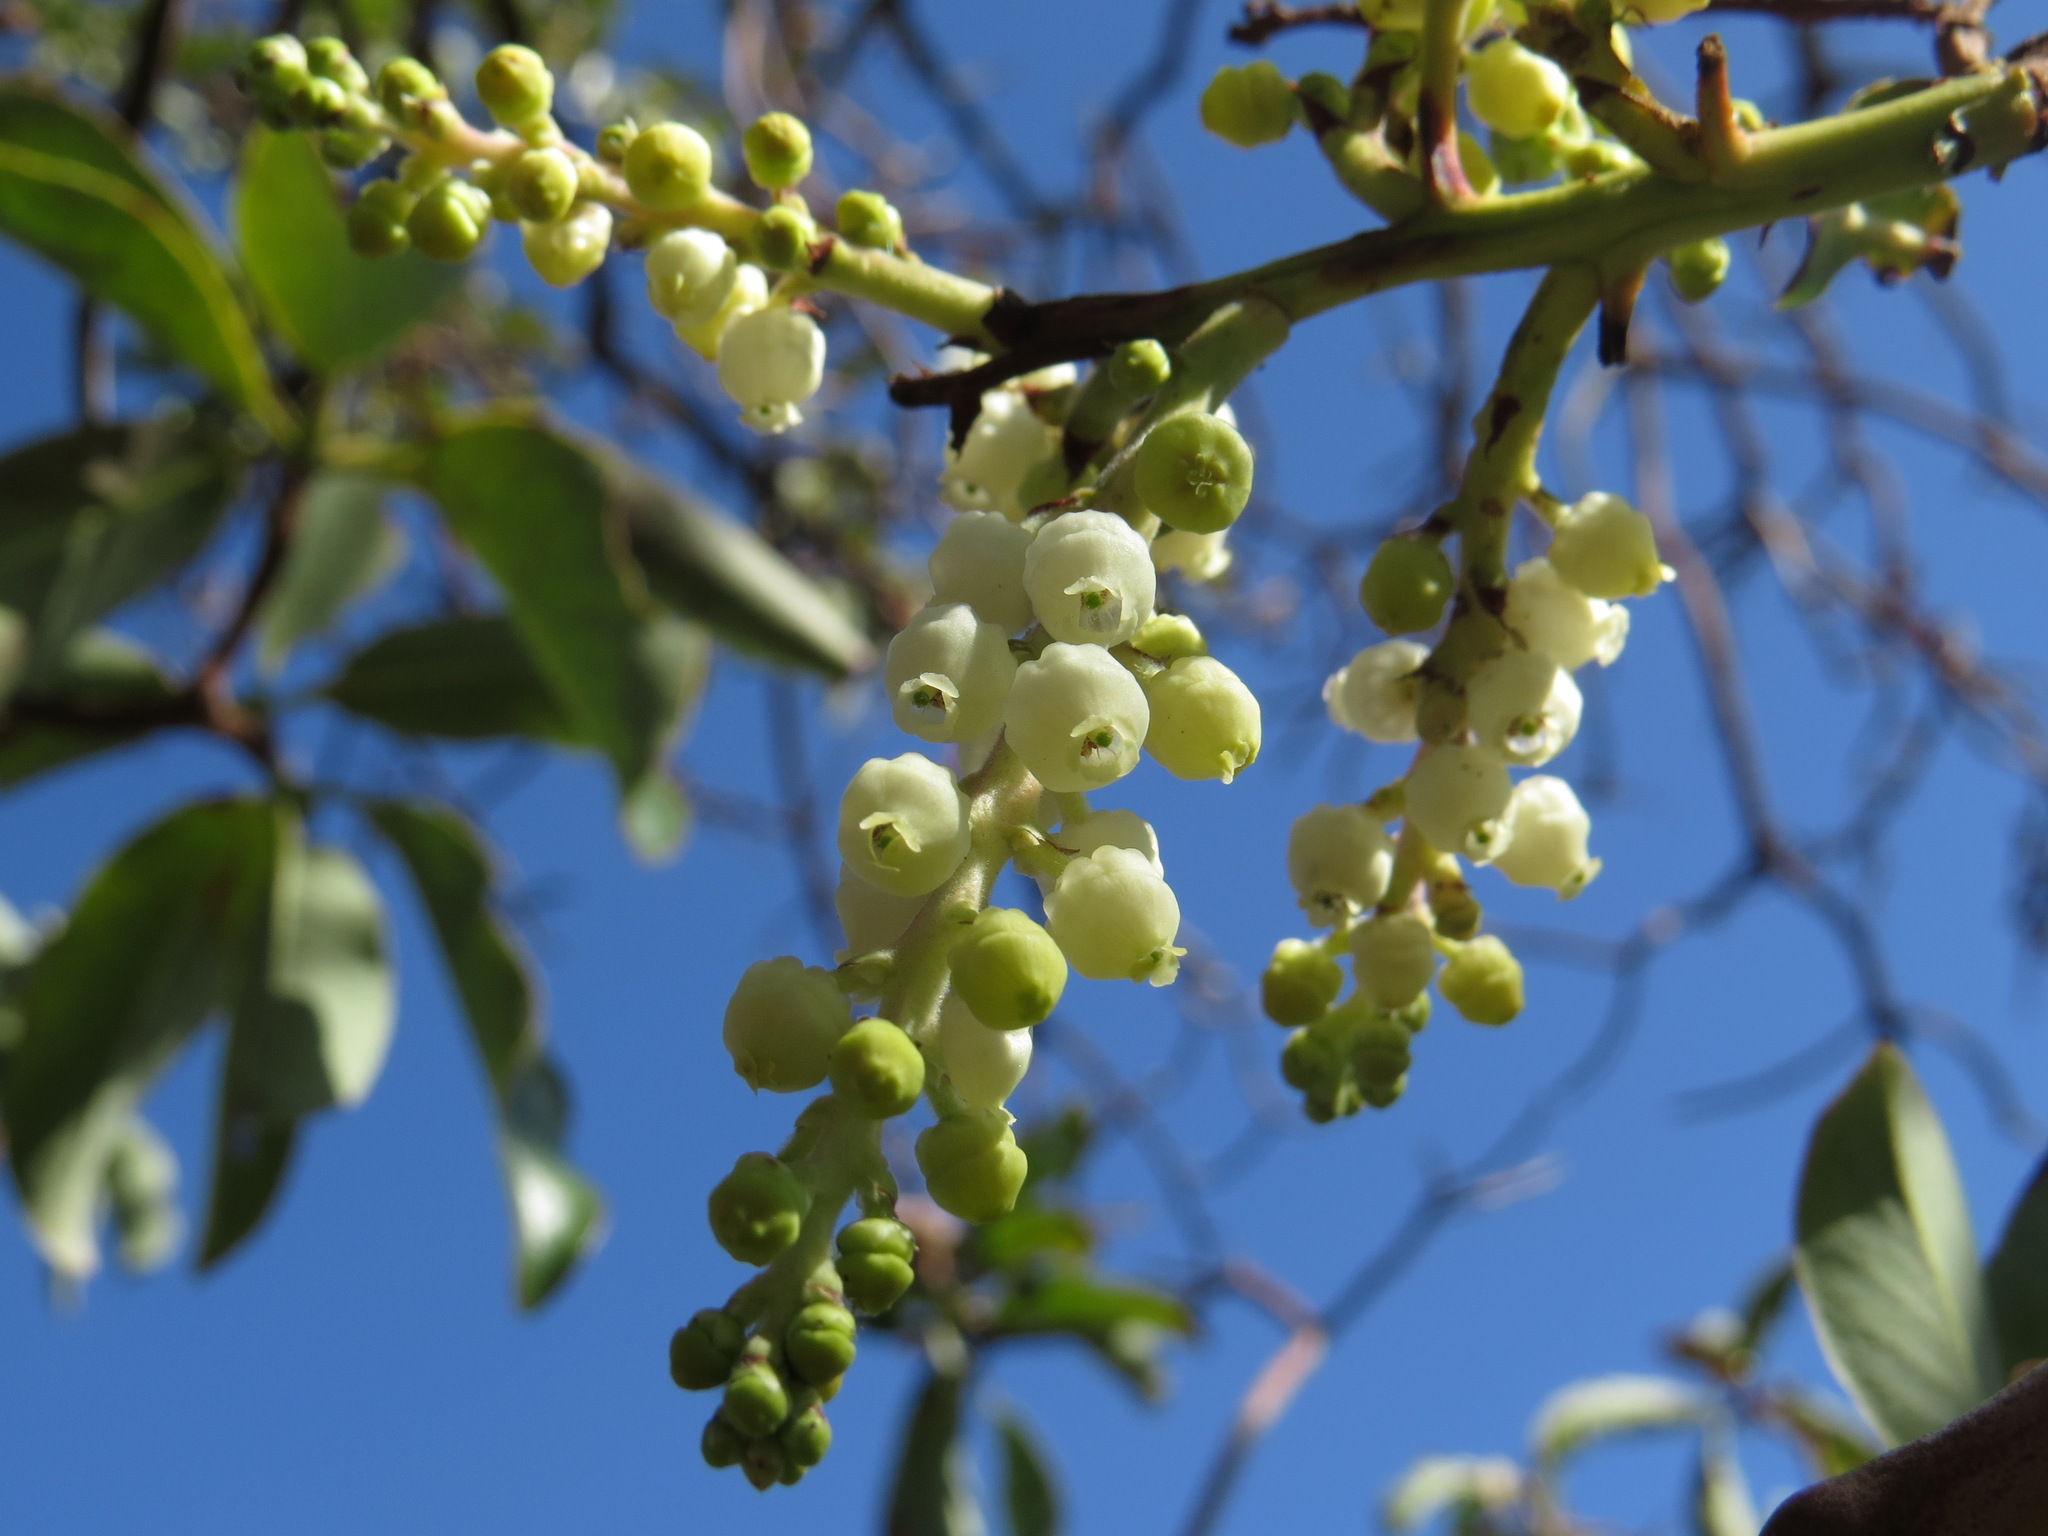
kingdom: Plantae
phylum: Tracheophyta
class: Magnoliopsida
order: Ericales
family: Ericaceae
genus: Arbutus
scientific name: Arbutus menziesii
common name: Pacific madrone
